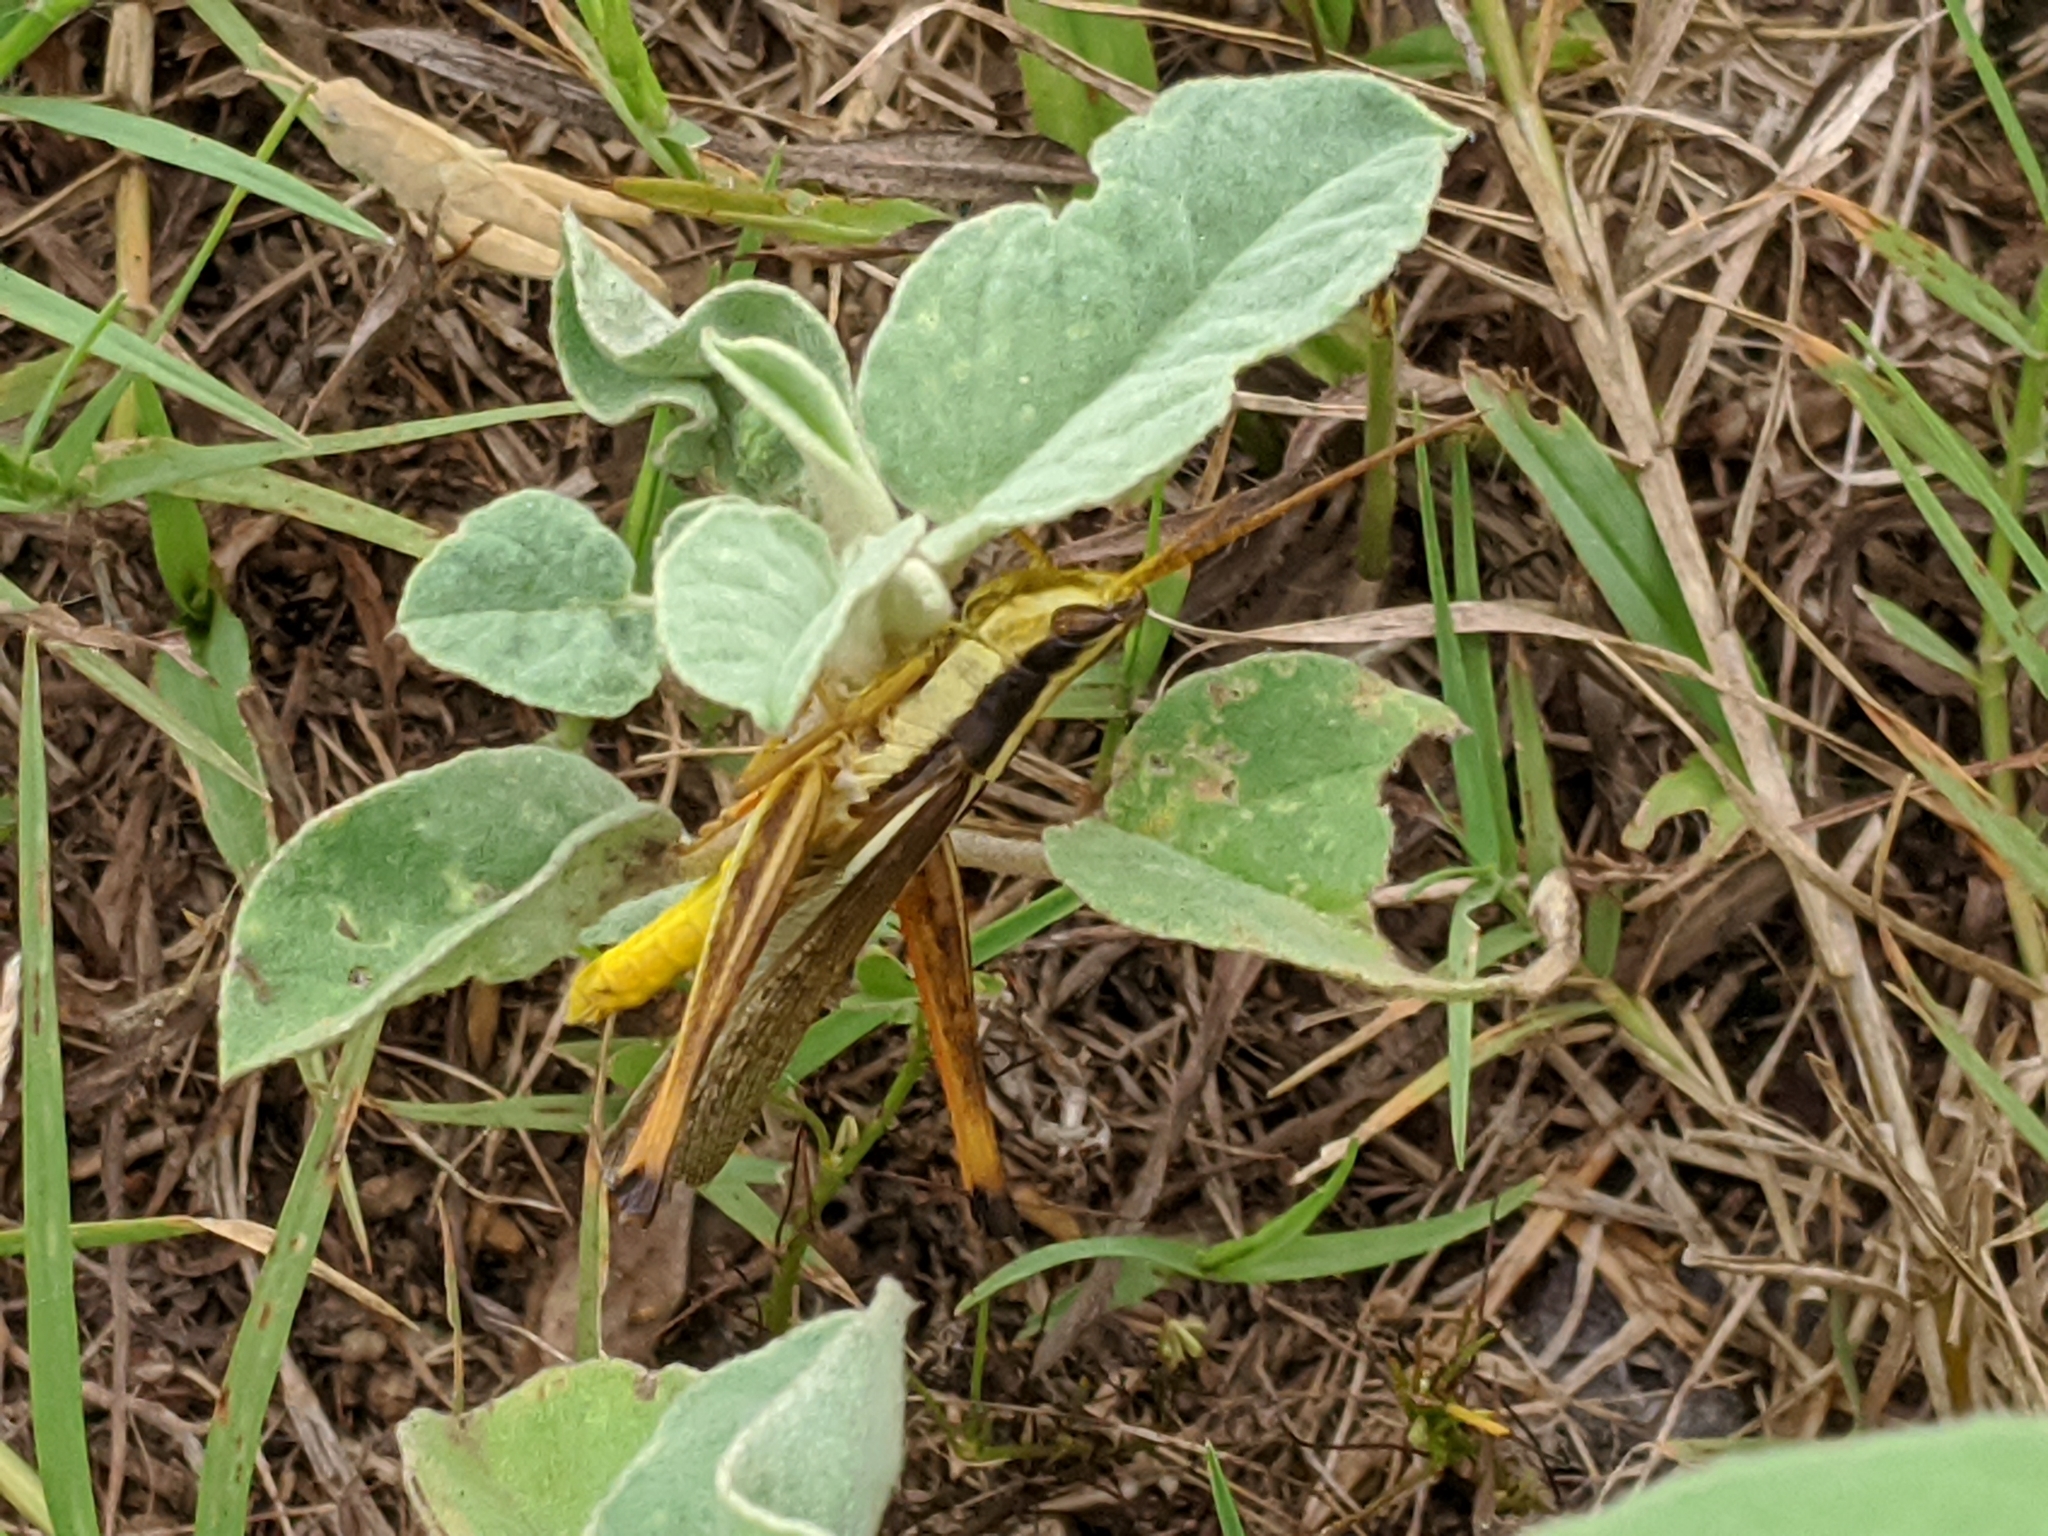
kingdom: Animalia
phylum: Arthropoda
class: Insecta
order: Orthoptera
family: Acrididae
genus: Mermiria
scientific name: Mermiria bivittata
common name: Two-striped mermiria grasshopper
